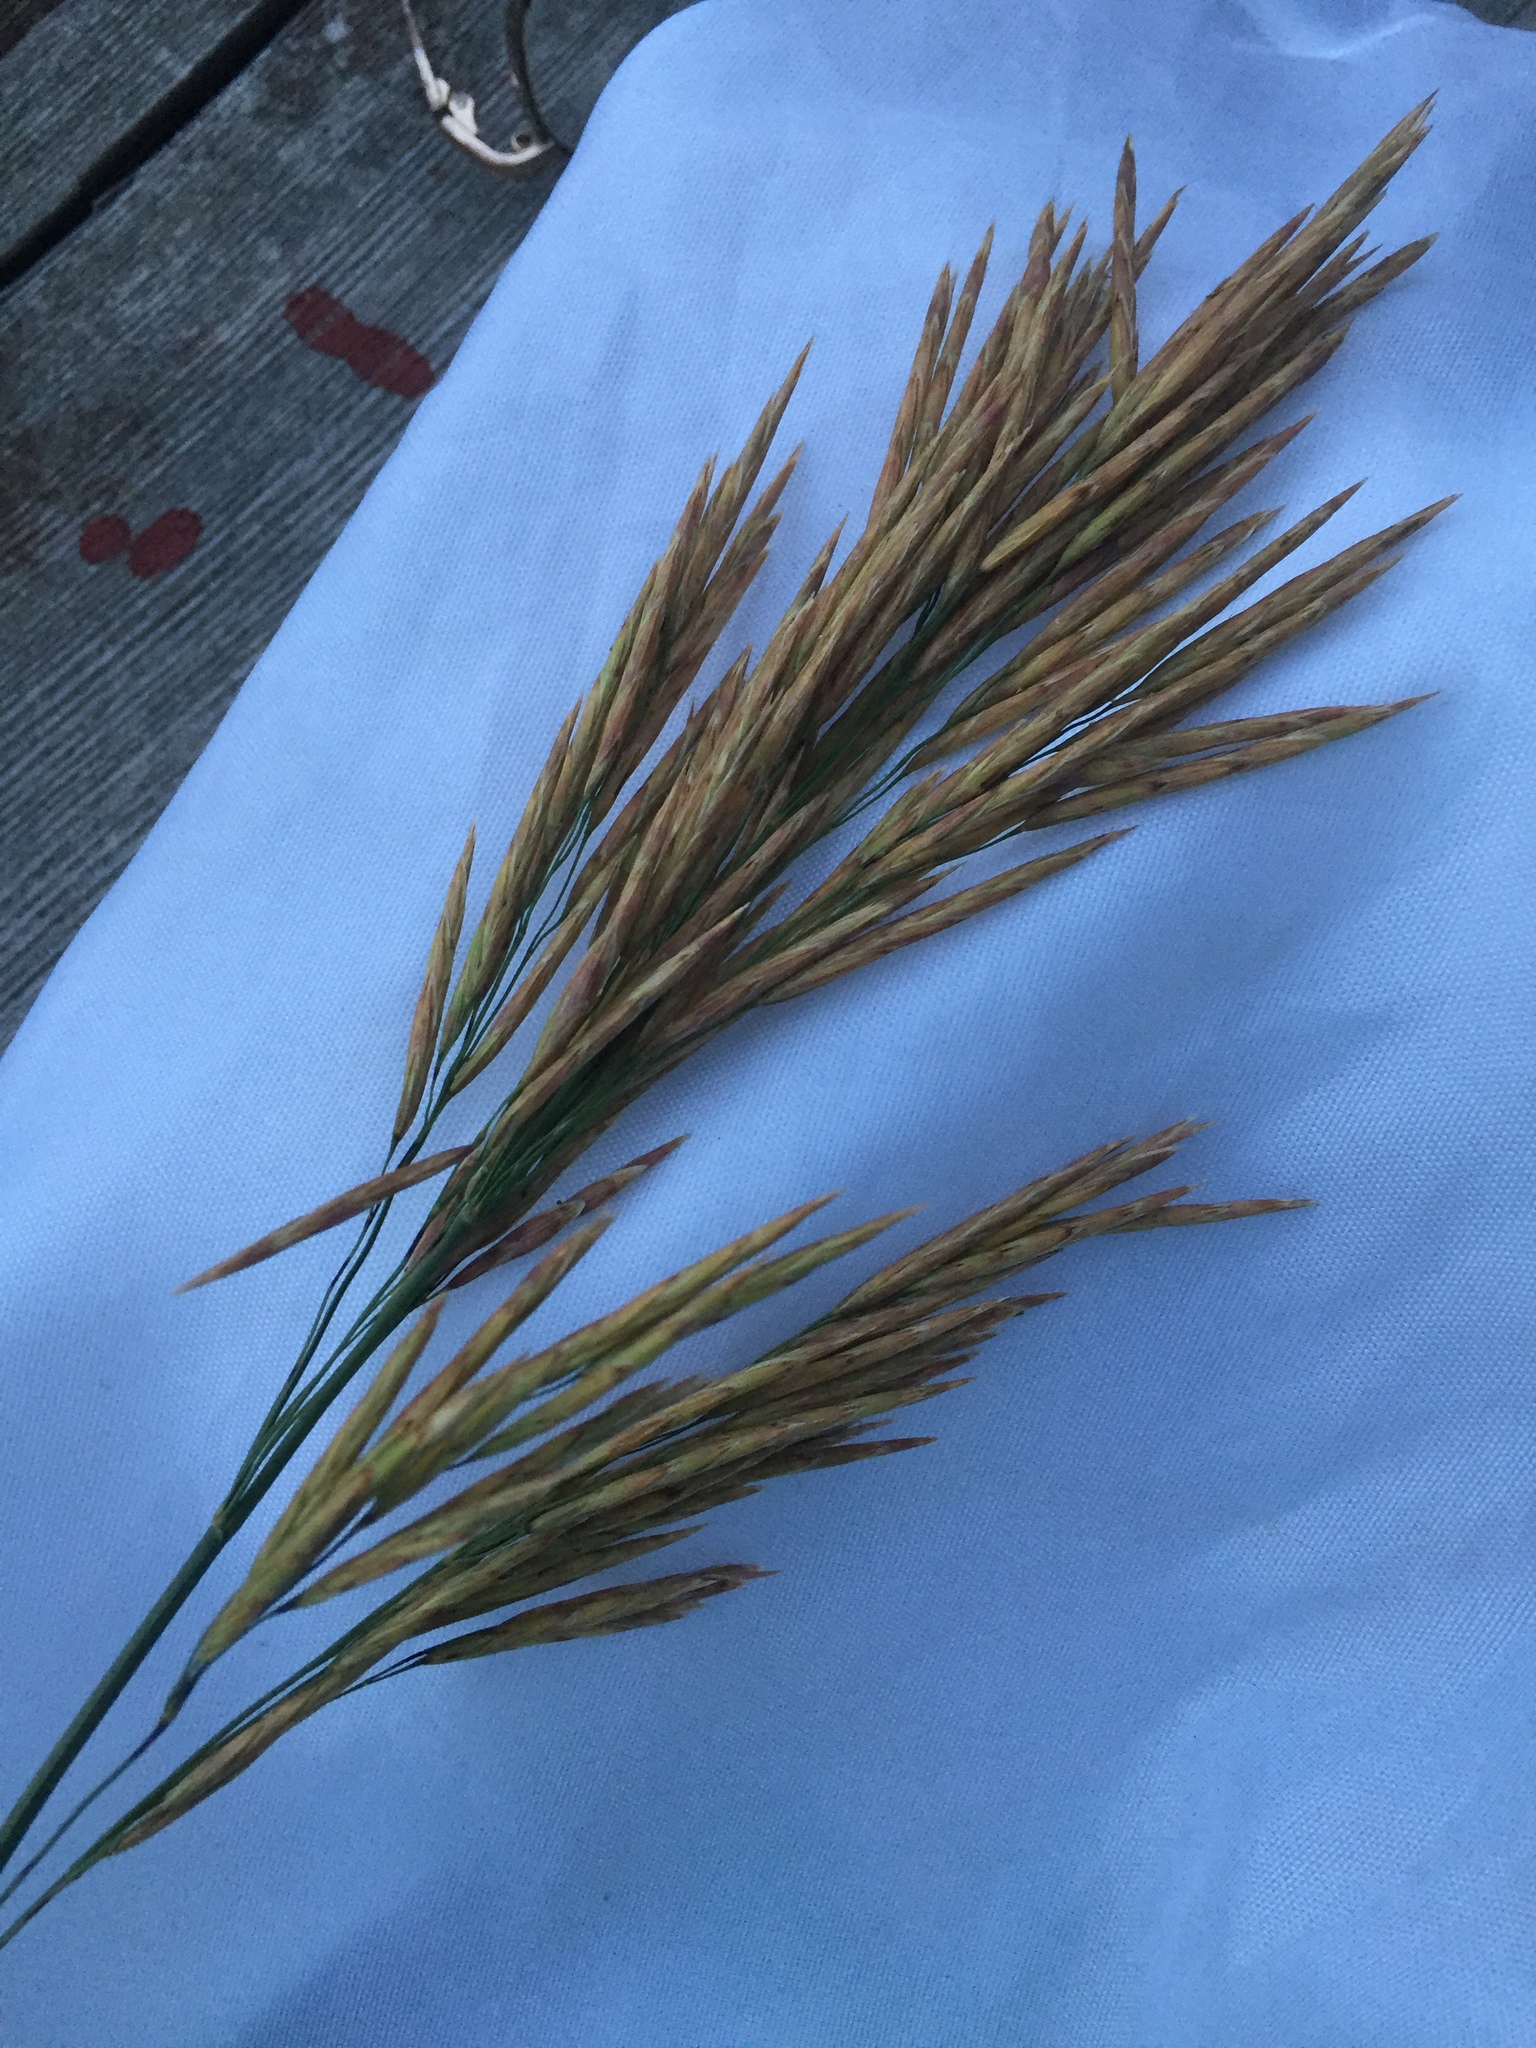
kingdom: Plantae
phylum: Tracheophyta
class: Liliopsida
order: Poales
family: Poaceae
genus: Bromus
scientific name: Bromus inermis
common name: Smooth brome
